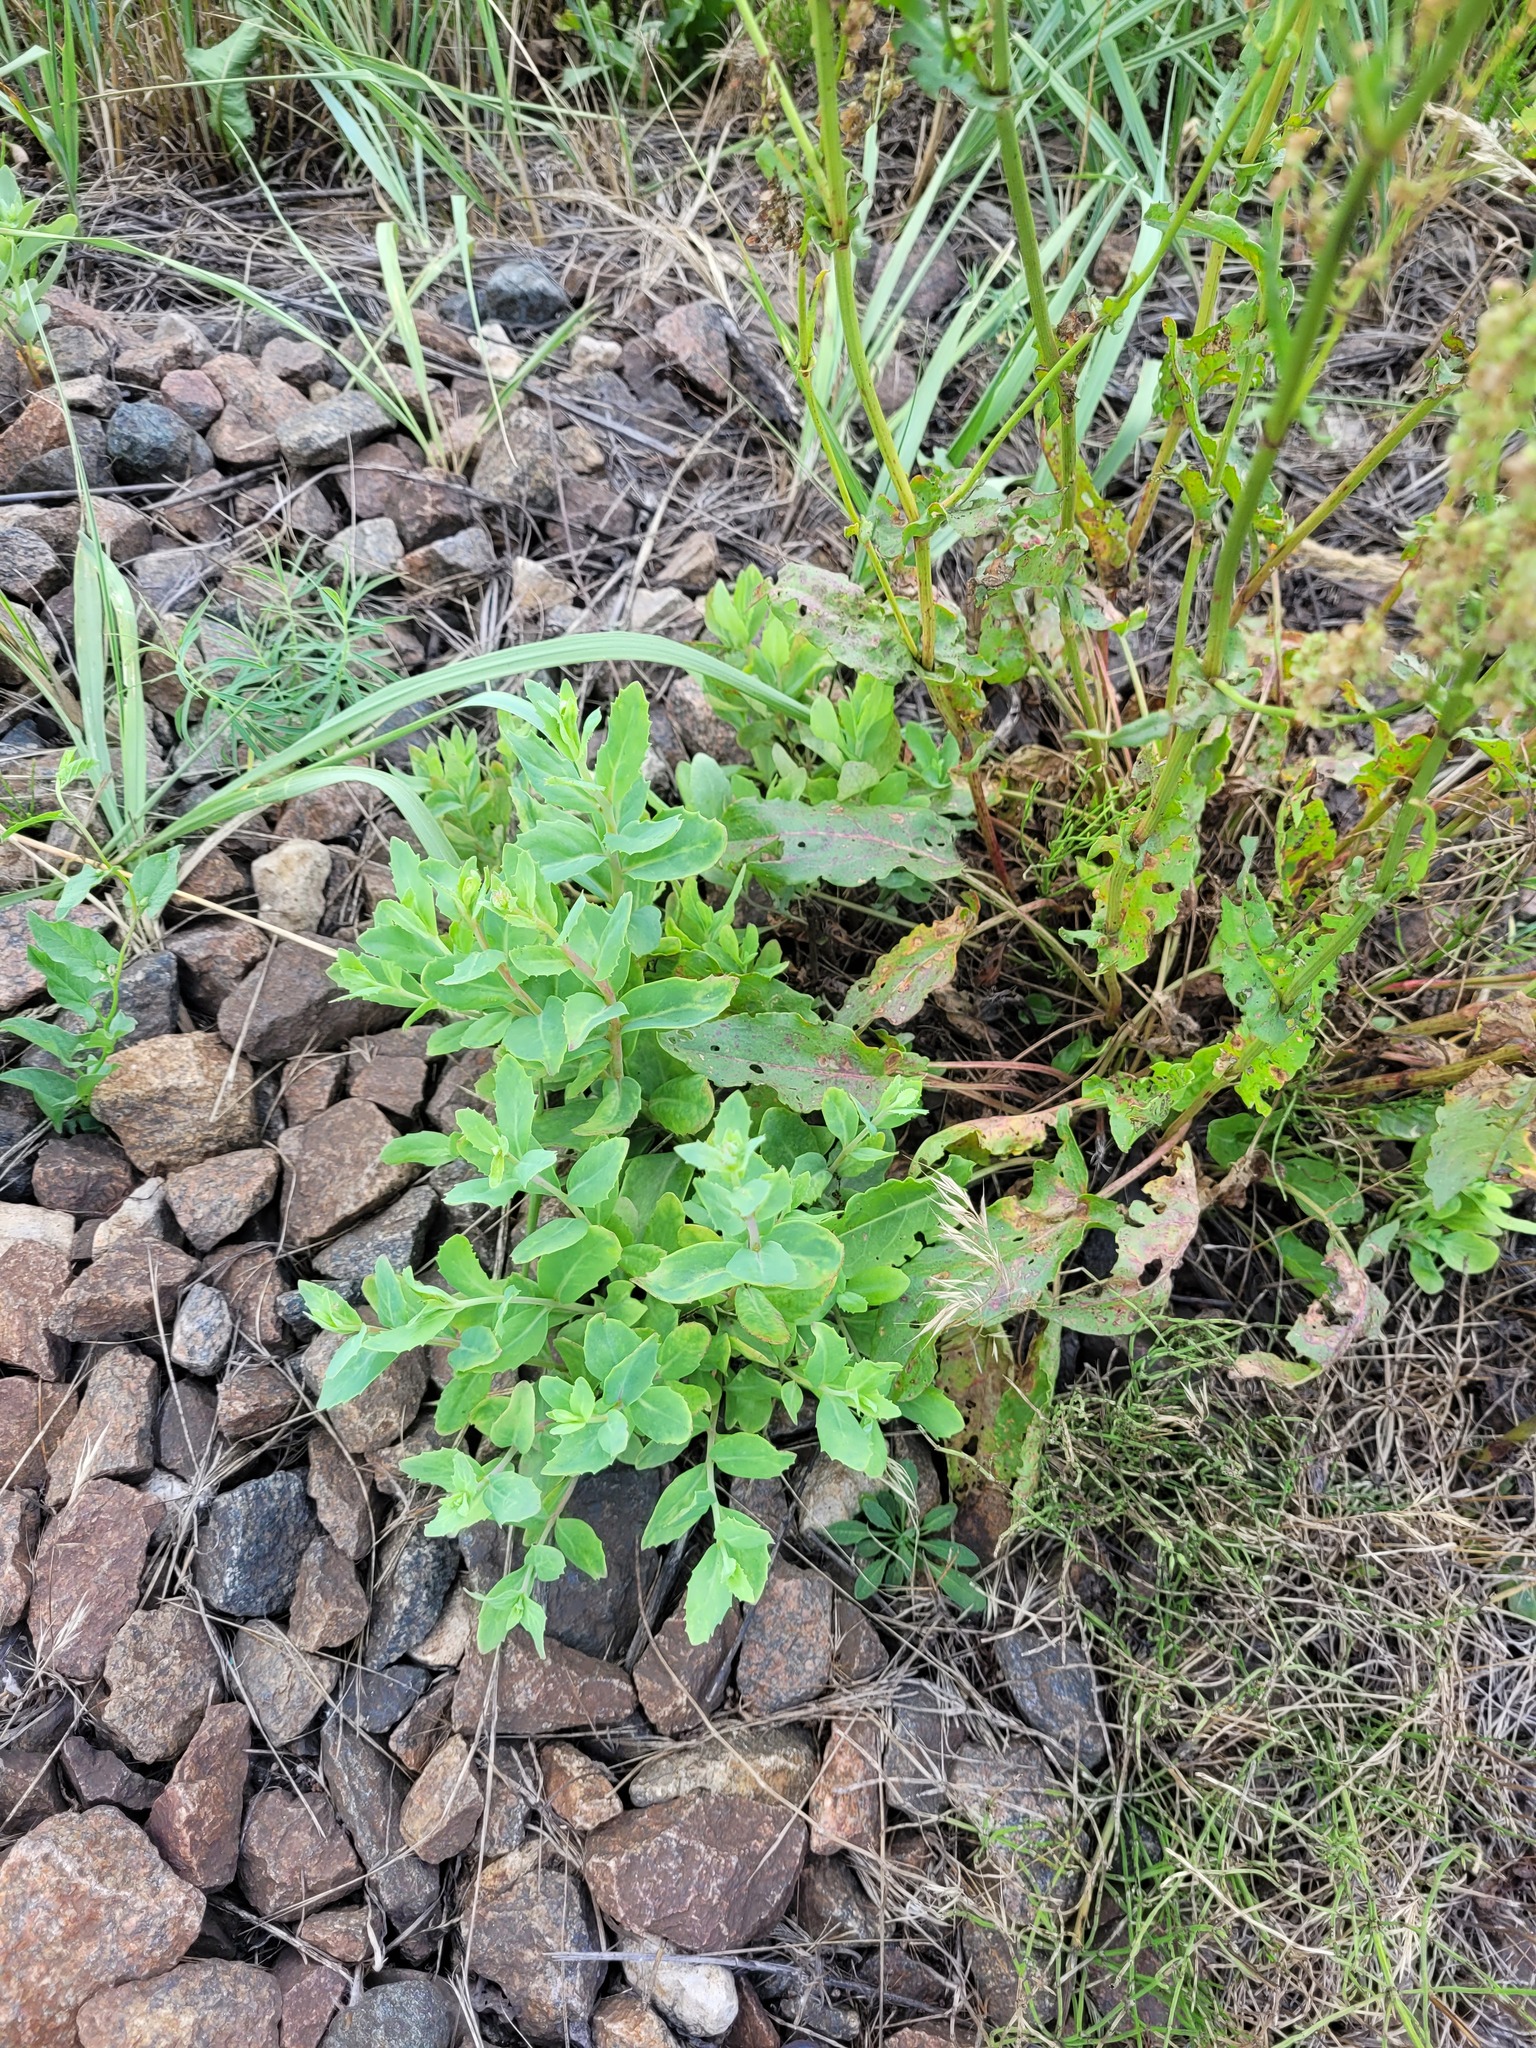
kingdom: Plantae
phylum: Tracheophyta
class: Magnoliopsida
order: Saxifragales
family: Crassulaceae
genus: Hylotelephium
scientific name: Hylotelephium maximum
